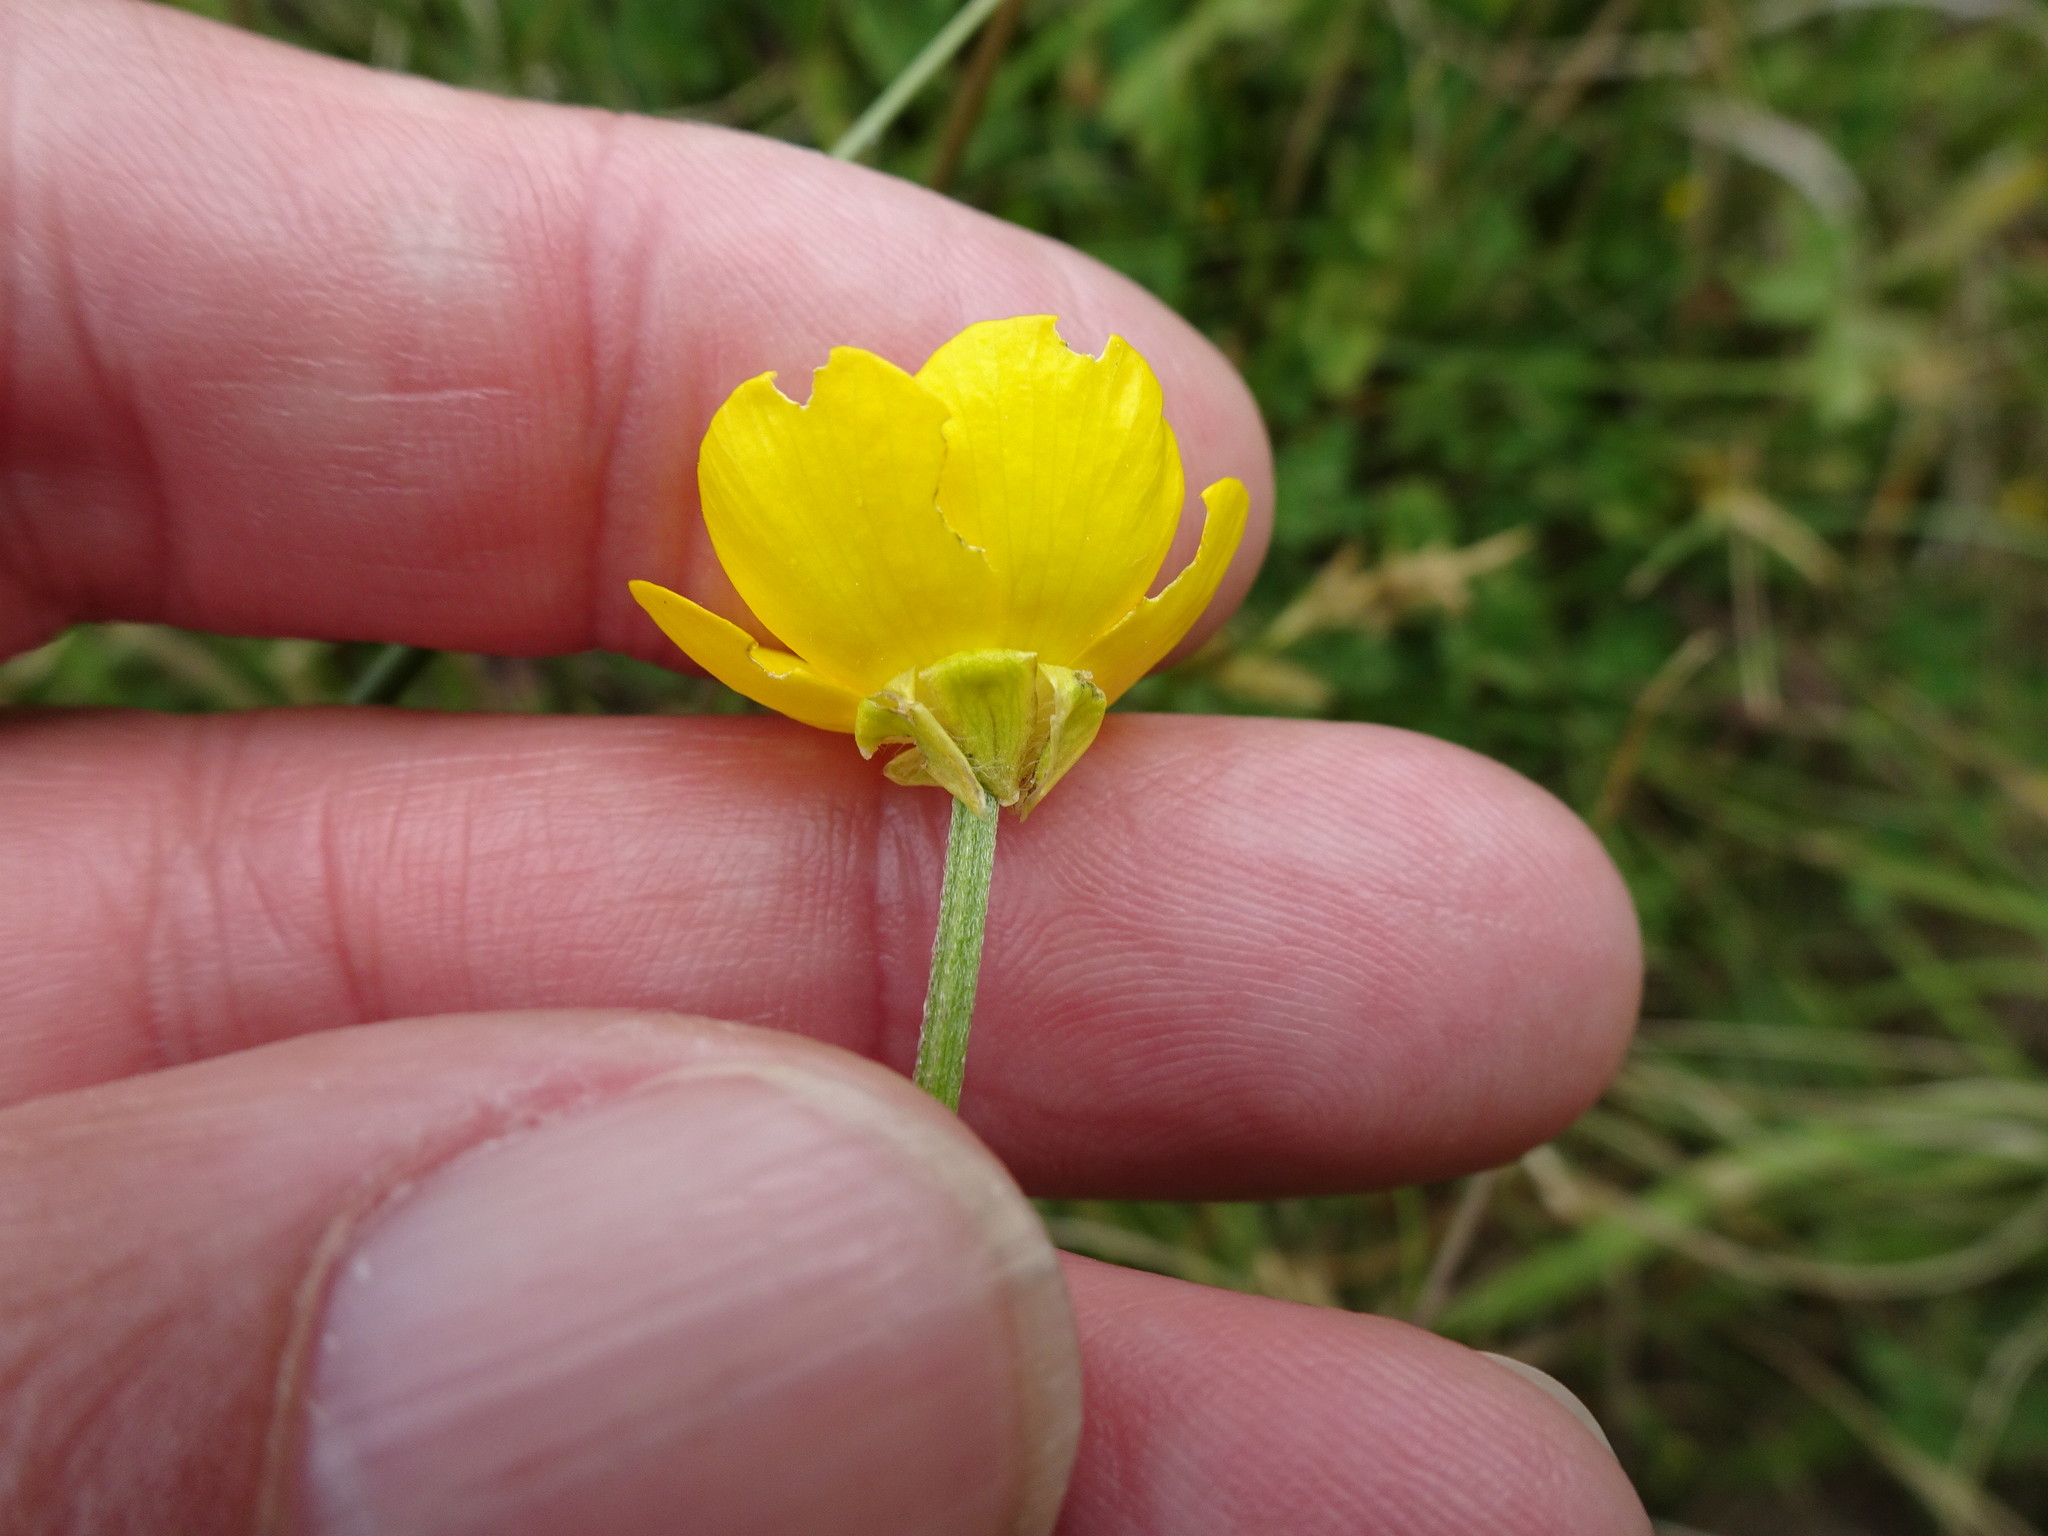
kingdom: Plantae
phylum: Tracheophyta
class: Magnoliopsida
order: Ranunculales
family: Ranunculaceae
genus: Ranunculus
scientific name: Ranunculus bulbosus
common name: Bulbous buttercup
